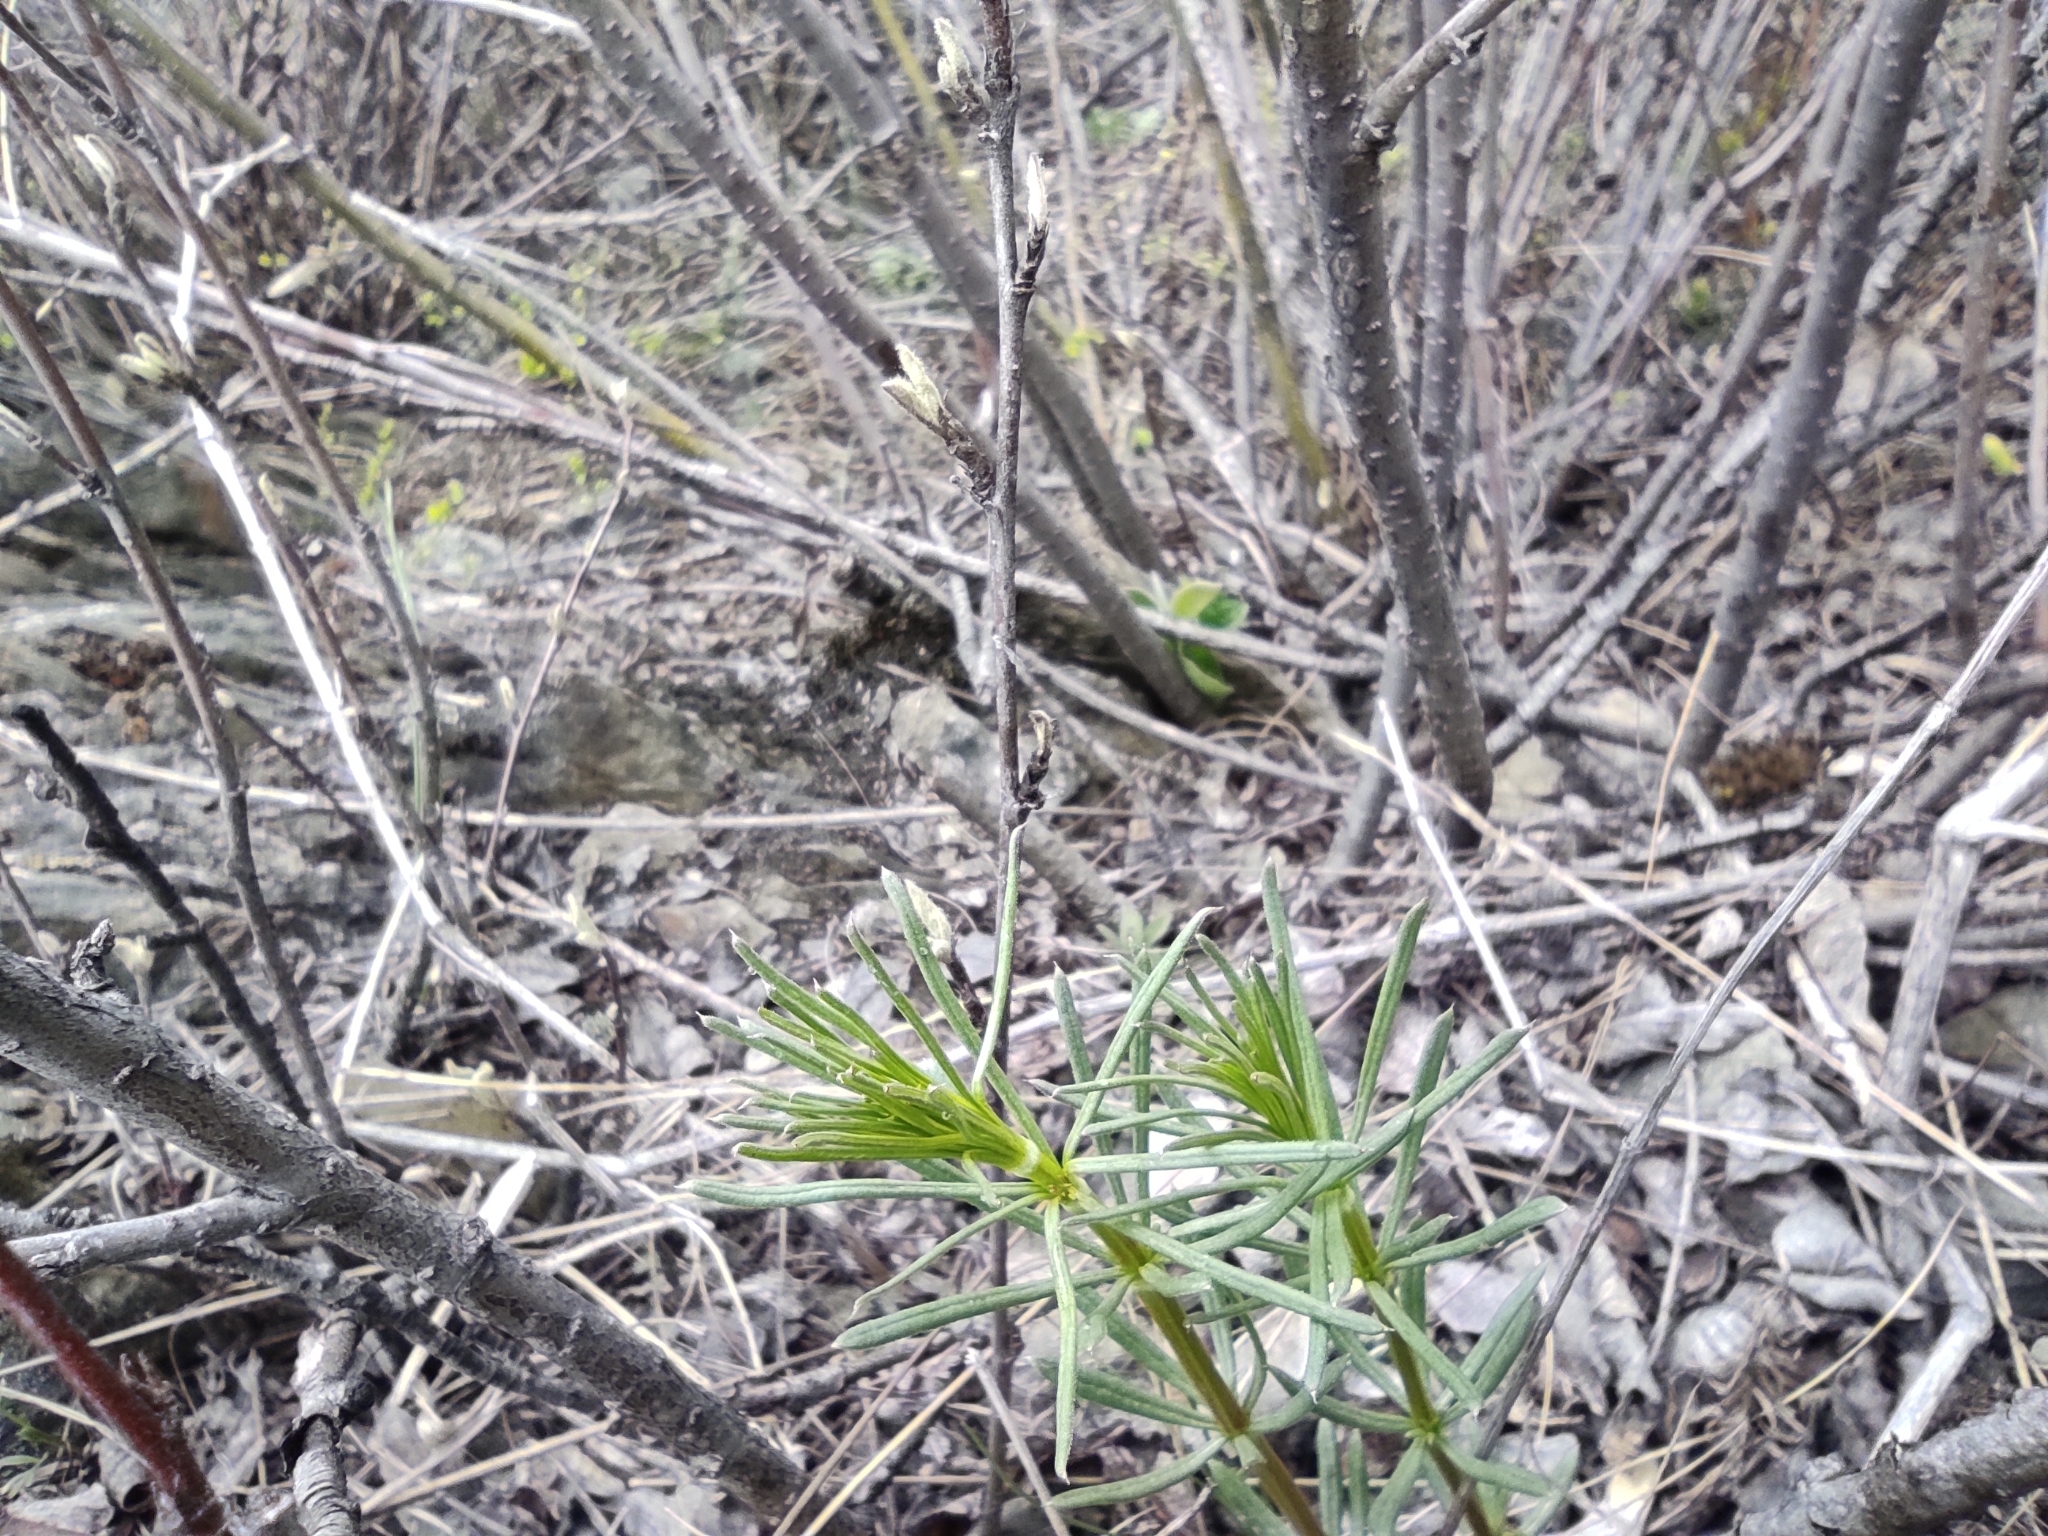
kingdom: Plantae
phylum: Tracheophyta
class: Magnoliopsida
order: Gentianales
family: Rubiaceae
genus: Galium
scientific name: Galium verum
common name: Lady's bedstraw
